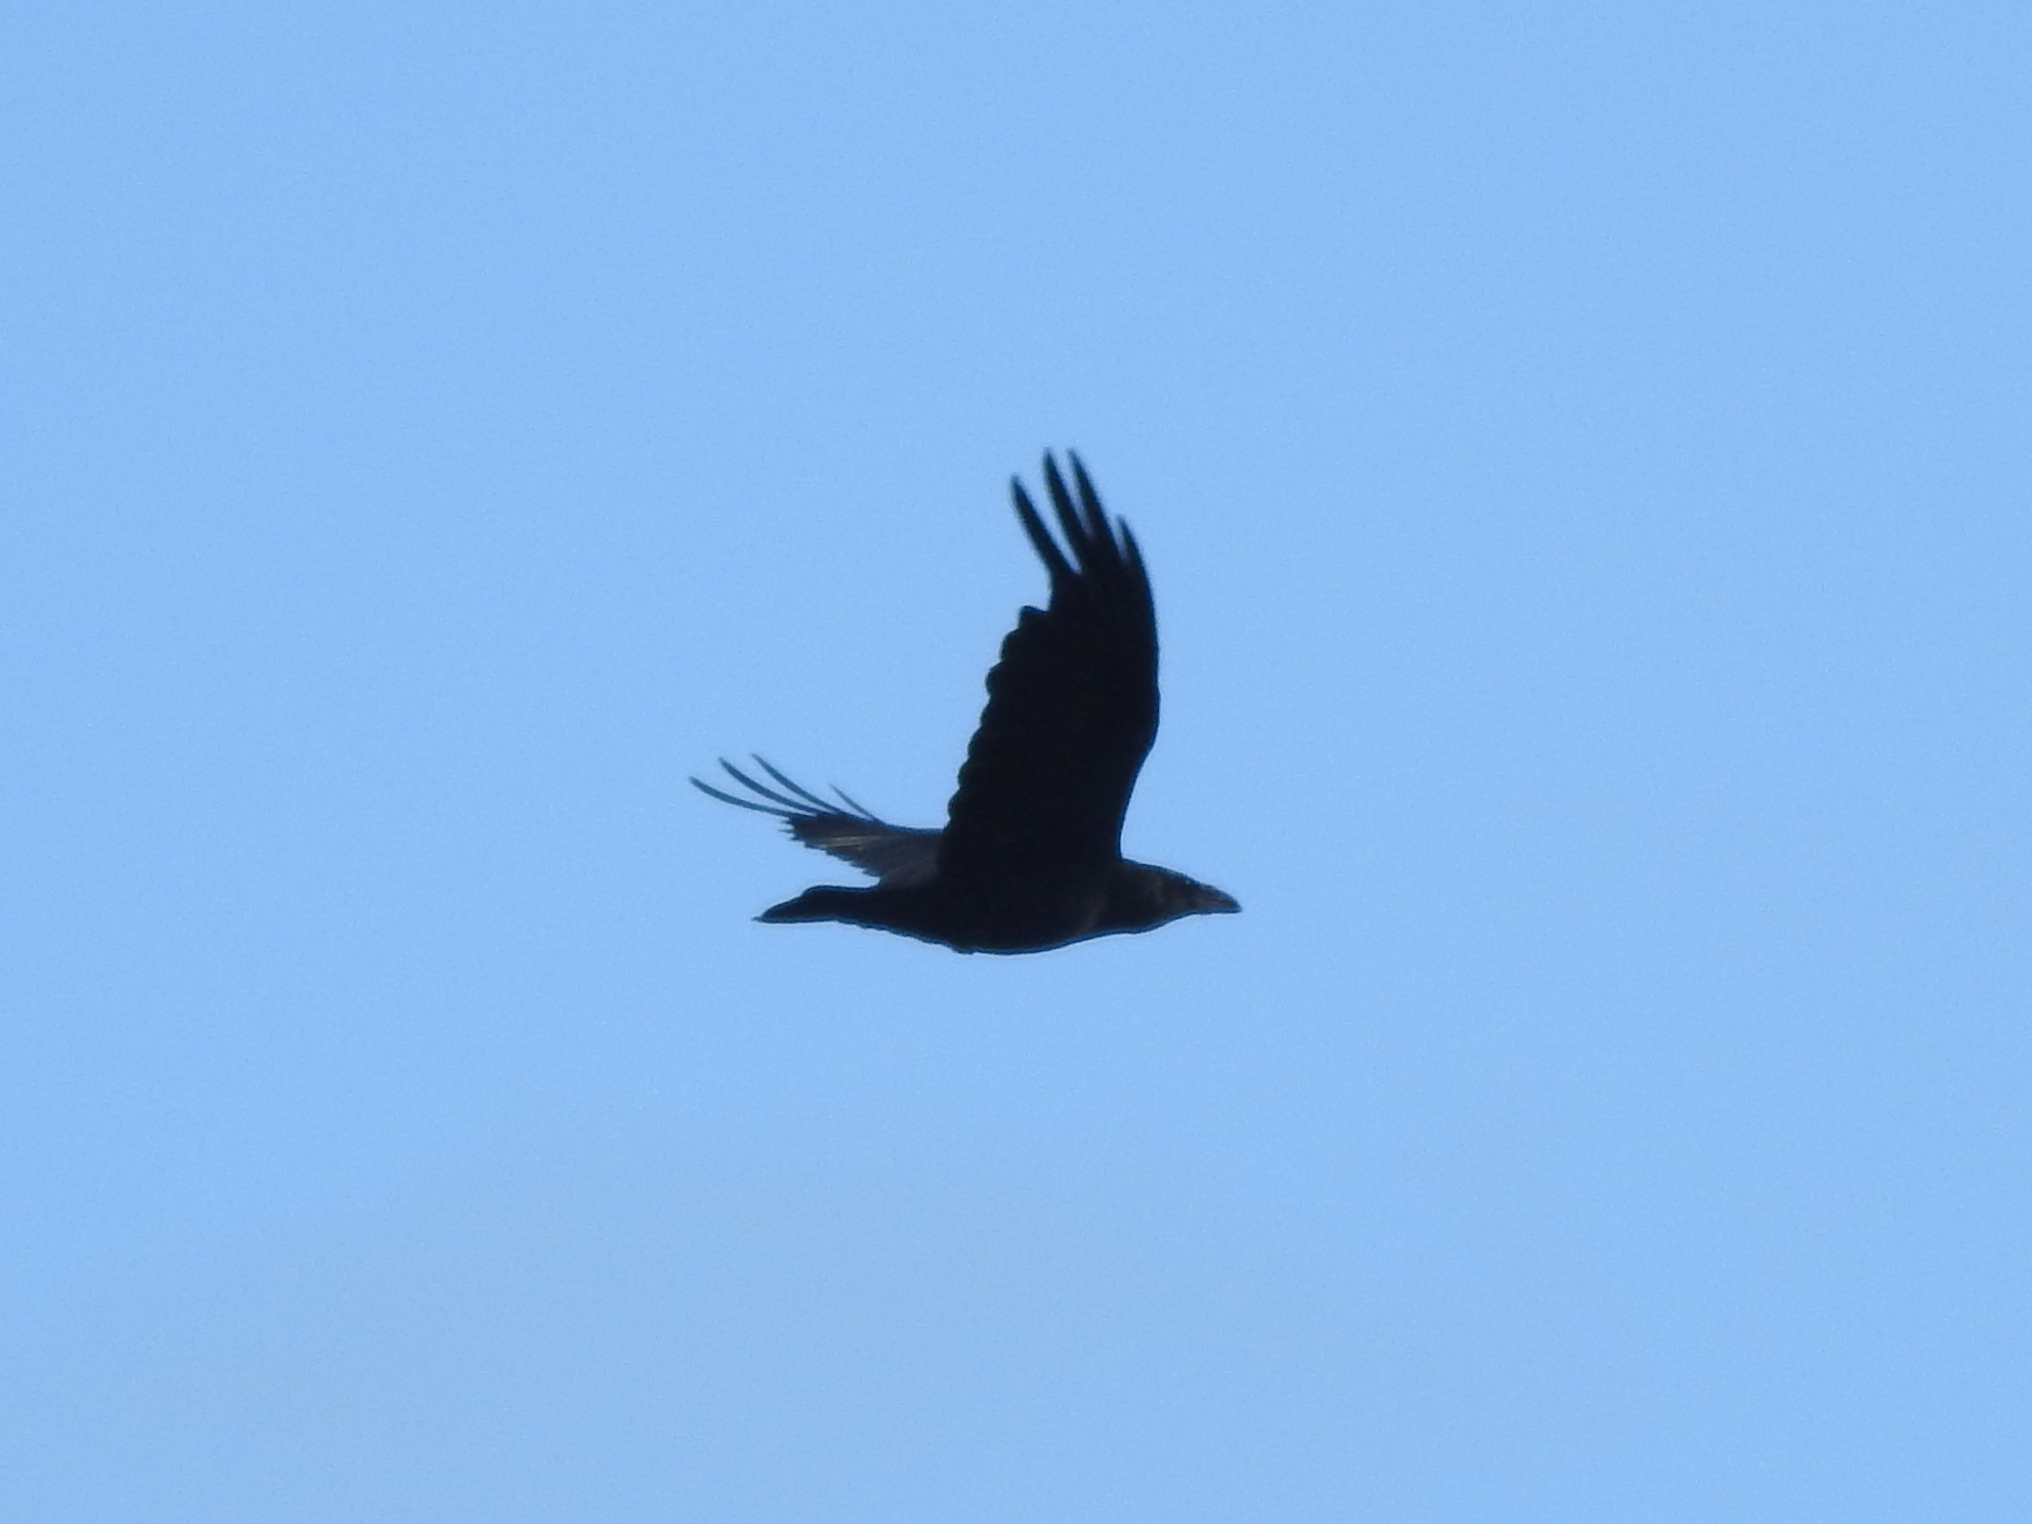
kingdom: Animalia
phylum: Chordata
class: Aves
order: Passeriformes
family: Corvidae
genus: Corvus
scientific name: Corvus corax
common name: Common raven
